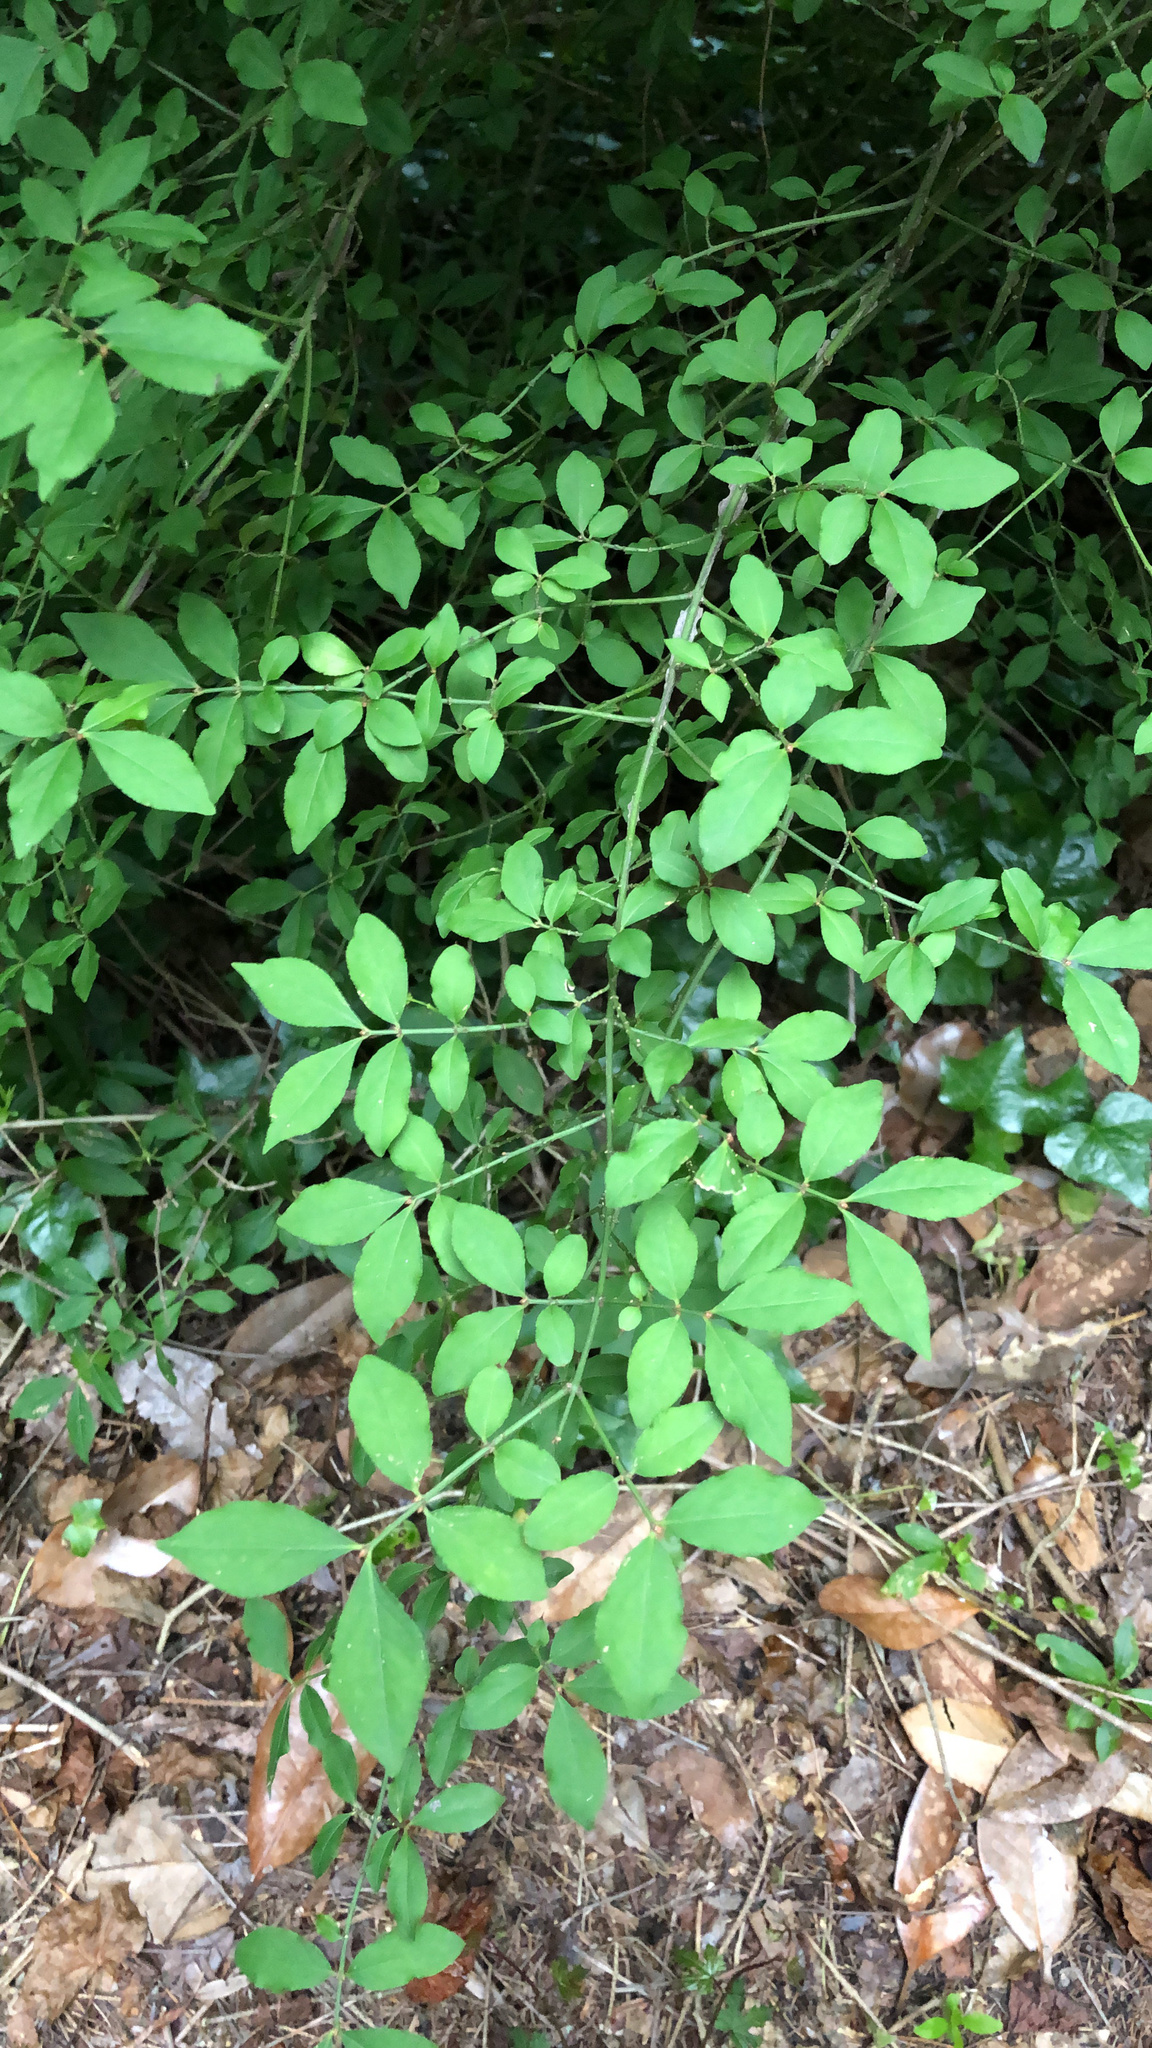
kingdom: Plantae
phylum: Tracheophyta
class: Magnoliopsida
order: Celastrales
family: Celastraceae
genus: Euonymus
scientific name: Euonymus alatus
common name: Winged euonymus
